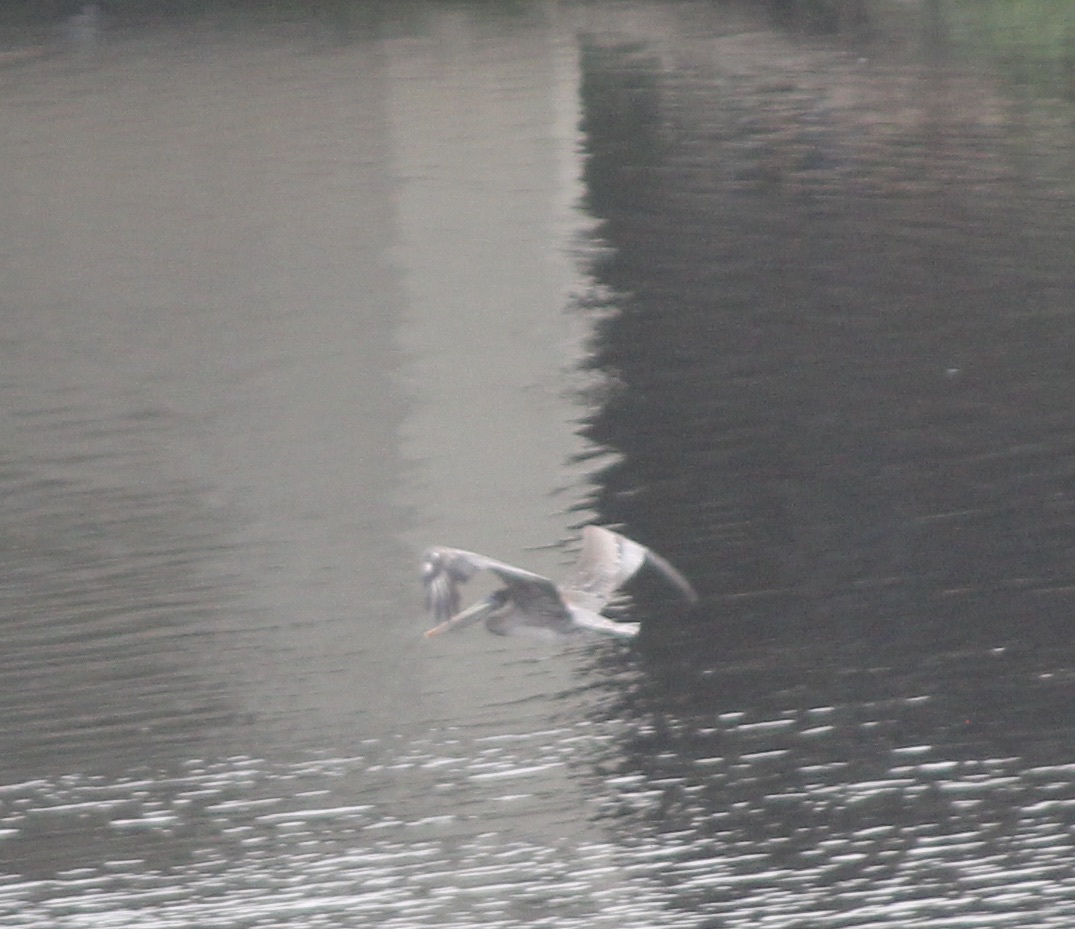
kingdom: Animalia
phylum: Chordata
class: Aves
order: Pelecaniformes
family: Pelecanidae
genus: Pelecanus
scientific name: Pelecanus occidentalis
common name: Brown pelican
